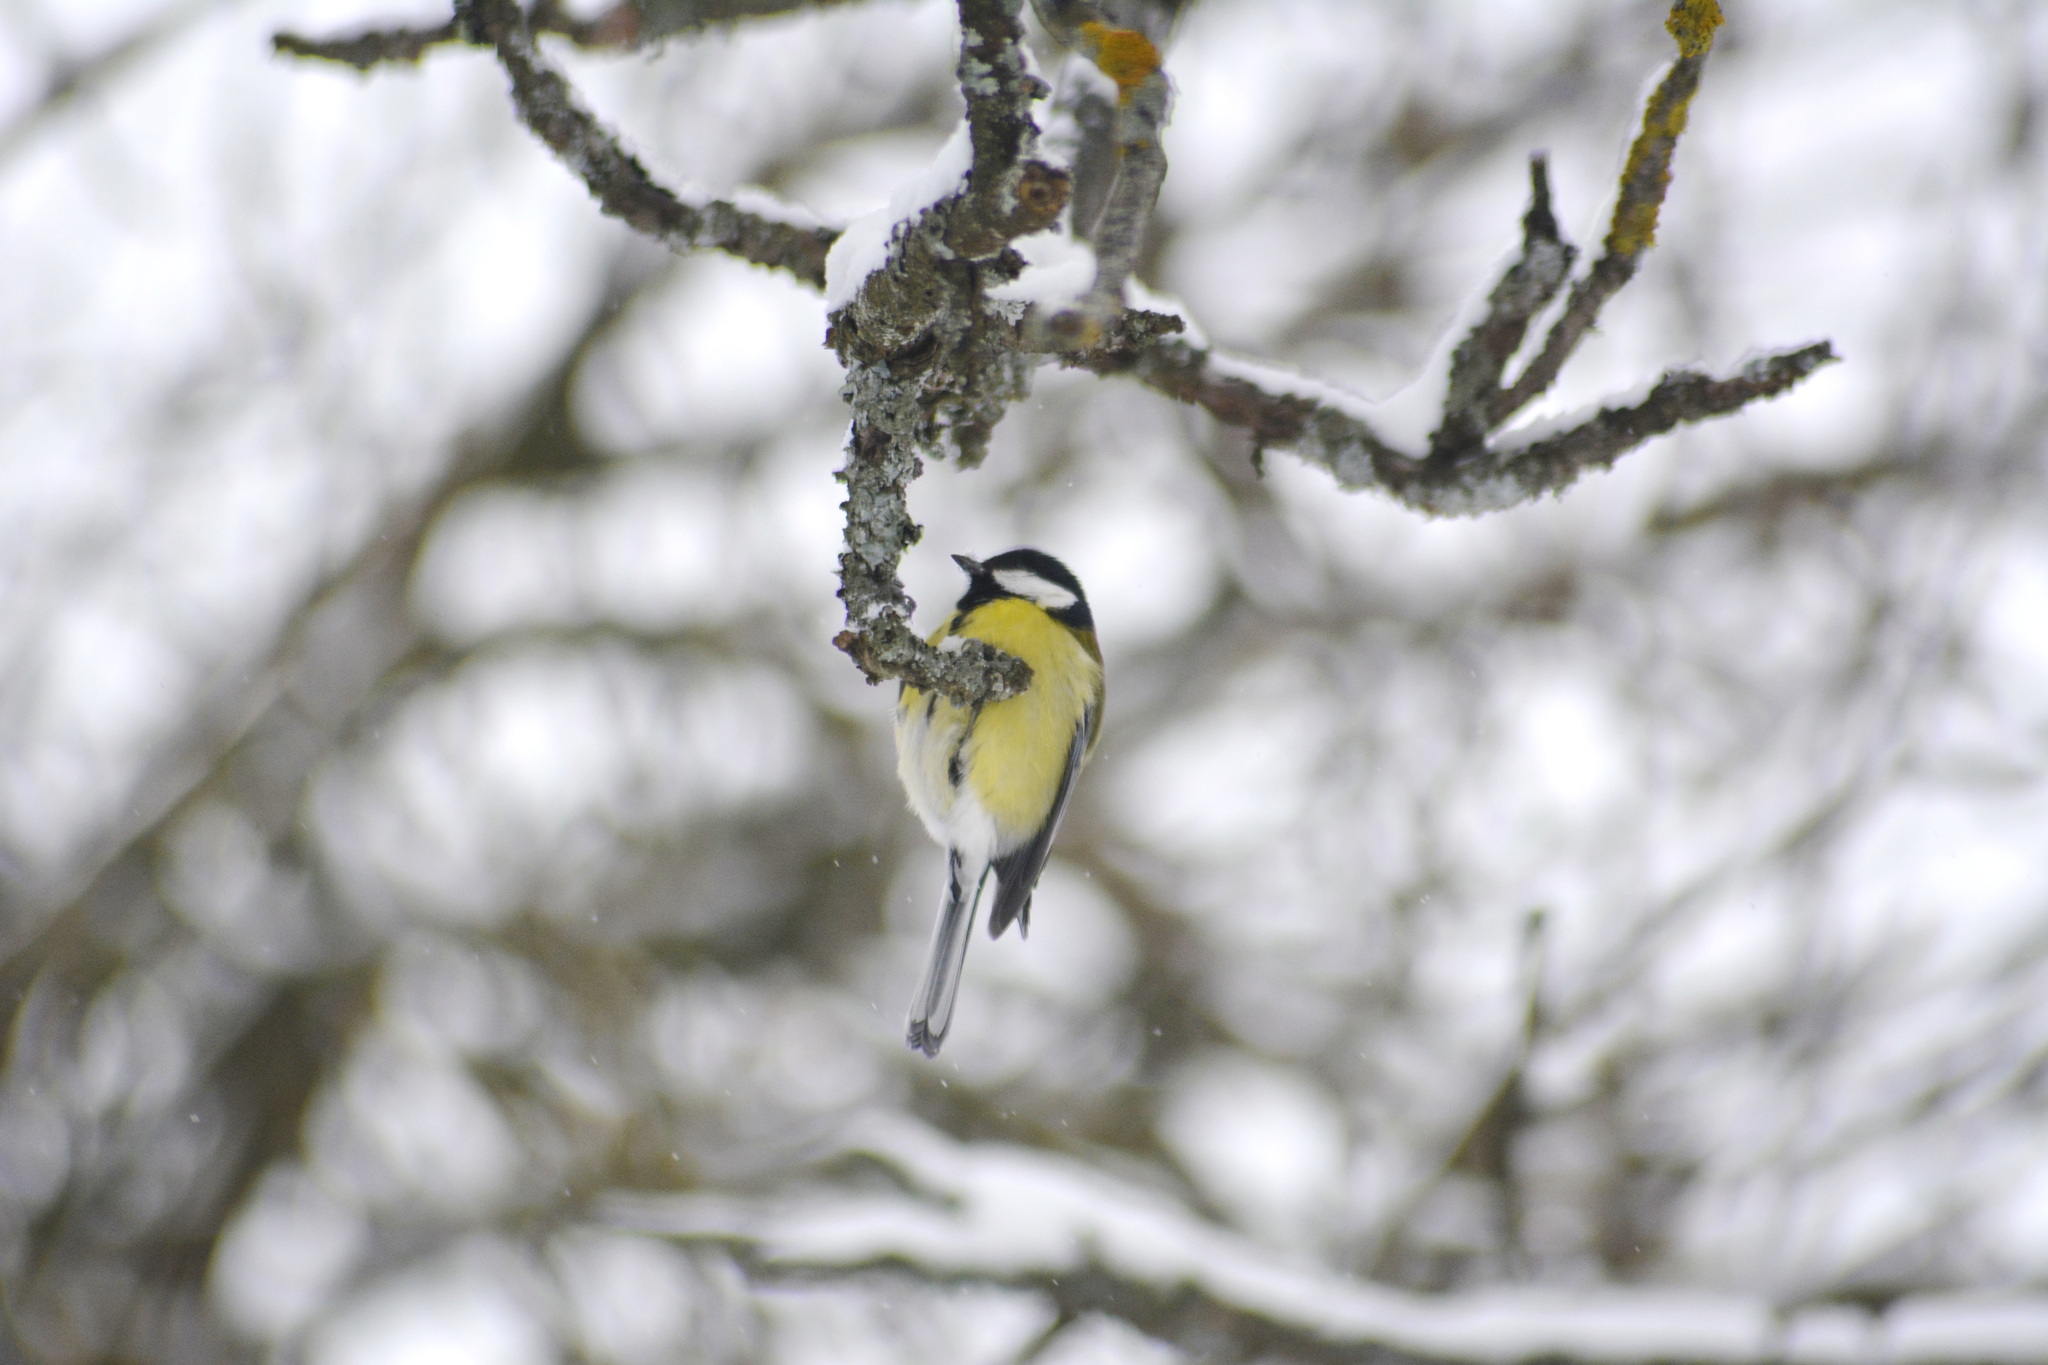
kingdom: Animalia
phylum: Chordata
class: Aves
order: Passeriformes
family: Paridae
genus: Parus
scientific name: Parus major
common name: Great tit
